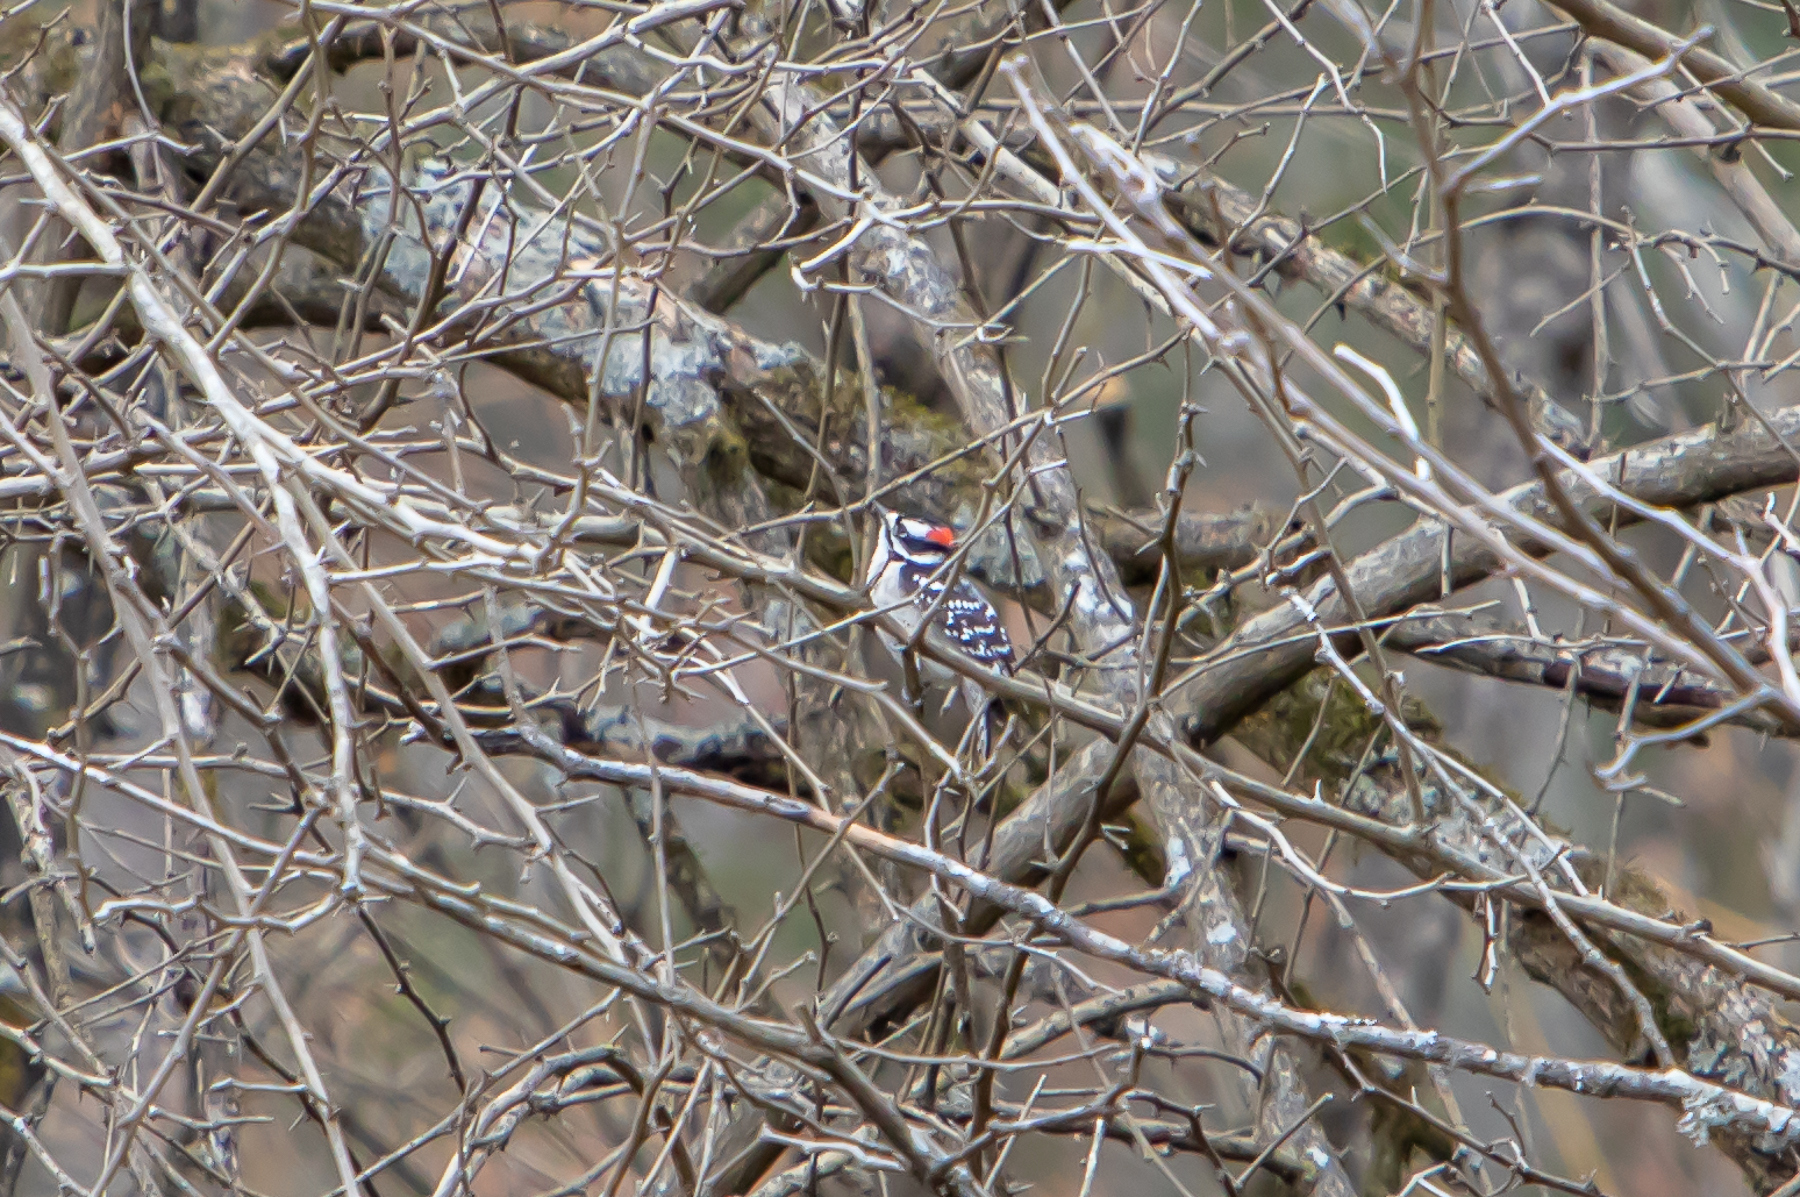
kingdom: Animalia
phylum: Chordata
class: Aves
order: Piciformes
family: Picidae
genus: Dryobates
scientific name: Dryobates pubescens
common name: Downy woodpecker
